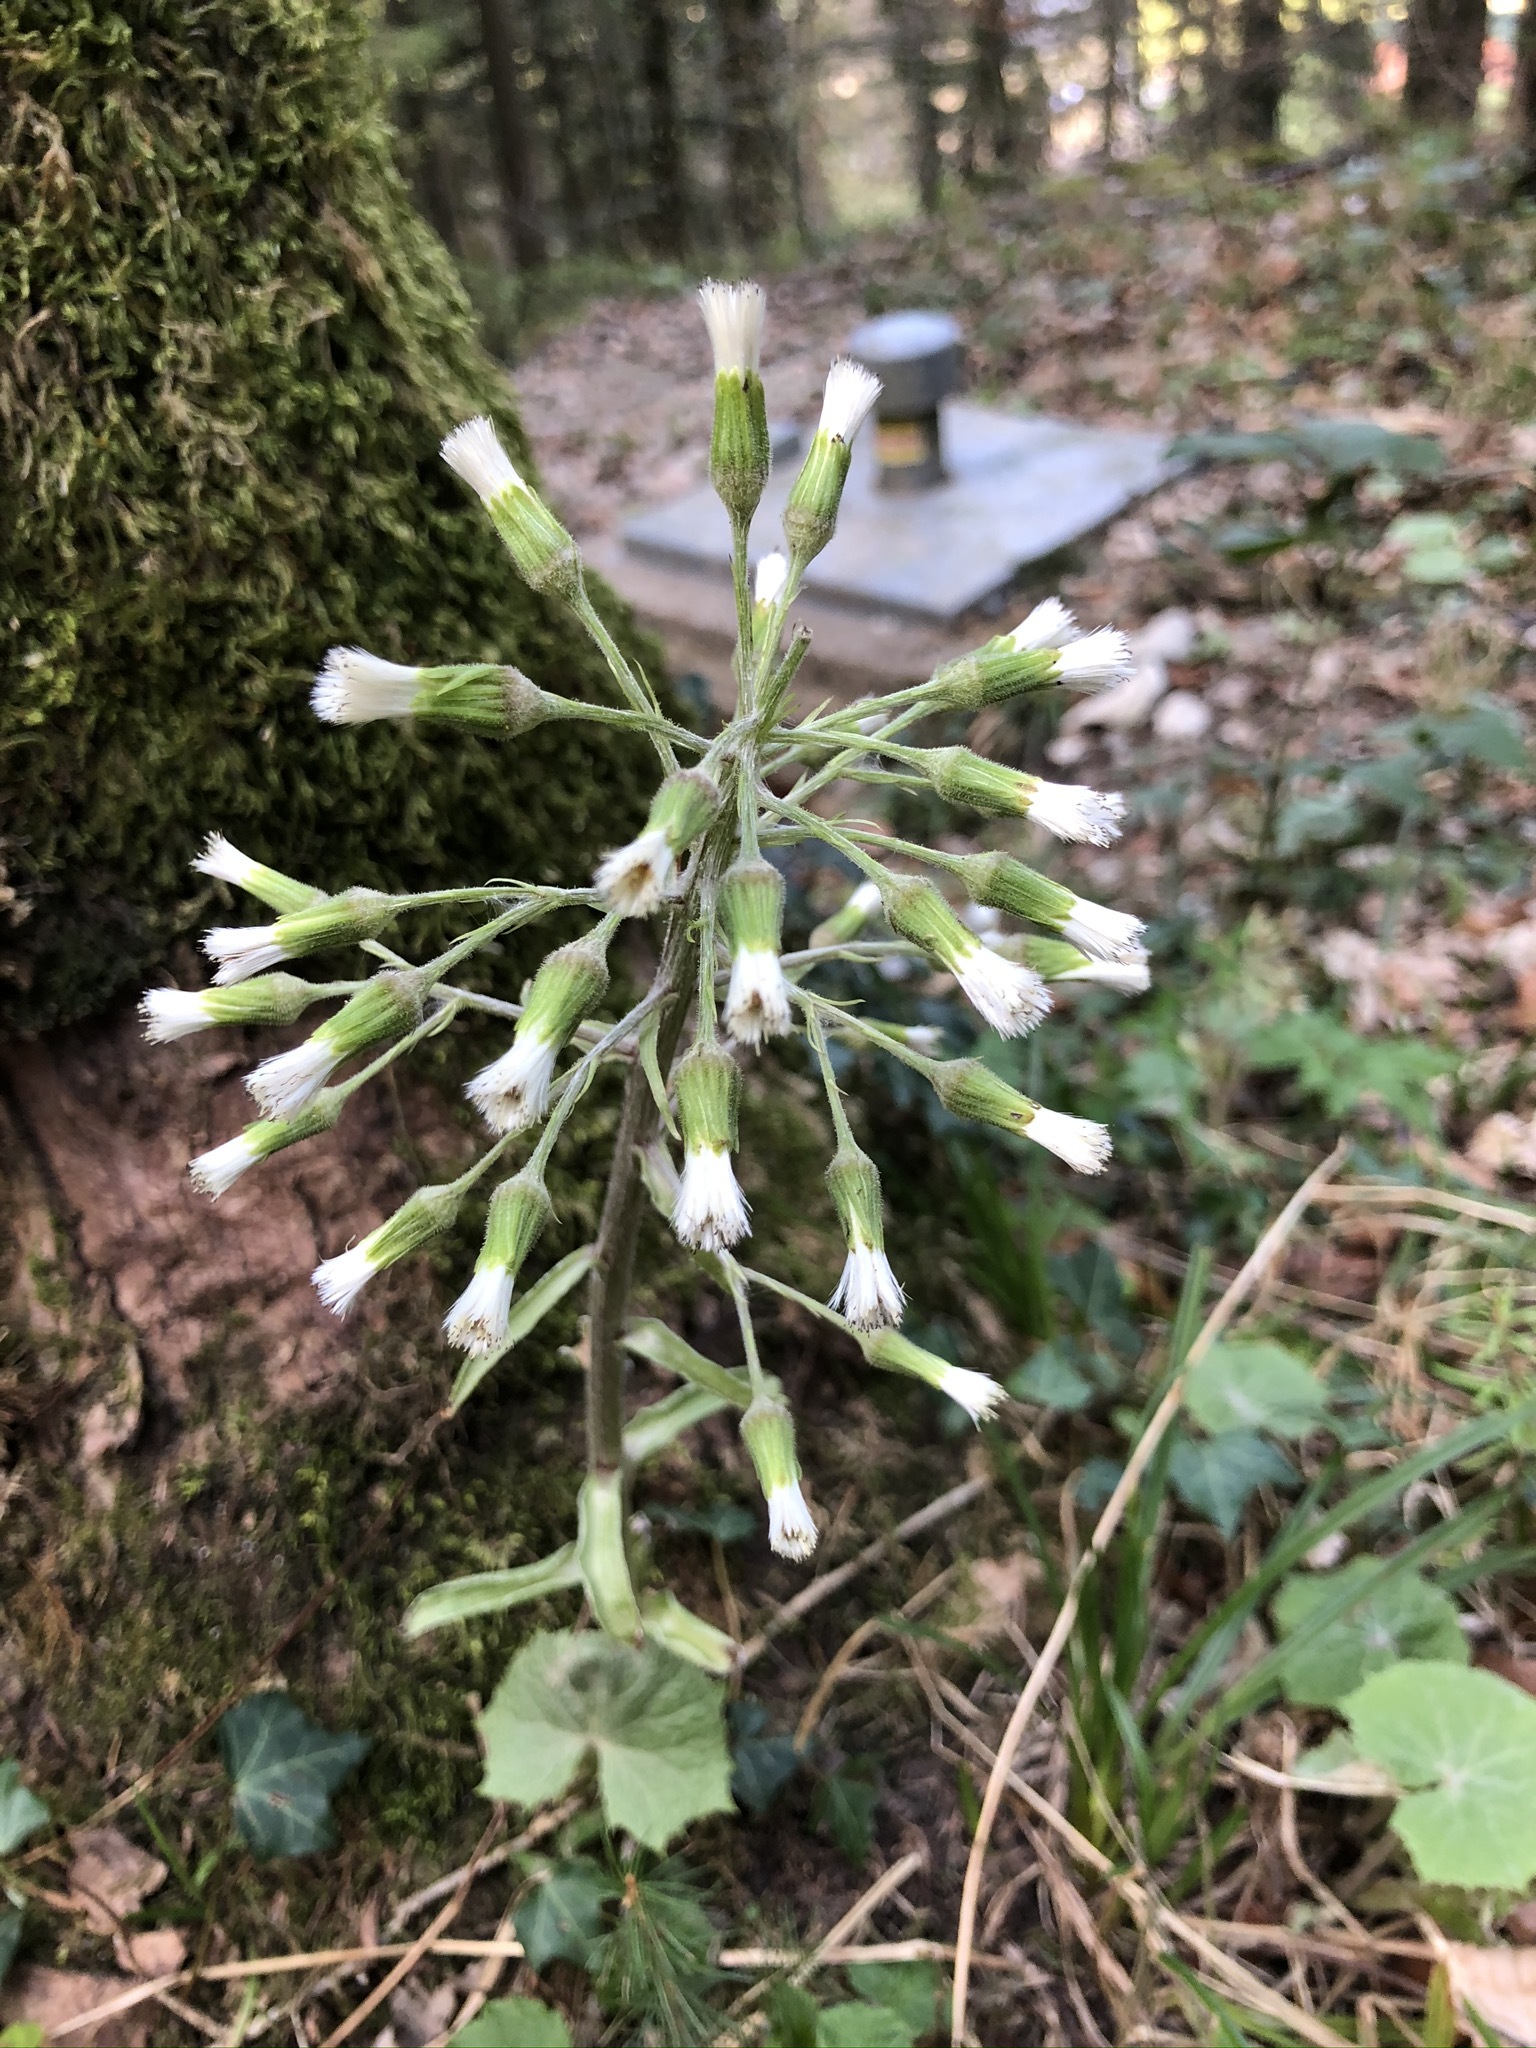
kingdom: Plantae
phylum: Tracheophyta
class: Magnoliopsida
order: Asterales
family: Asteraceae
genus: Petasites
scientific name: Petasites albus
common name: White butterbur
